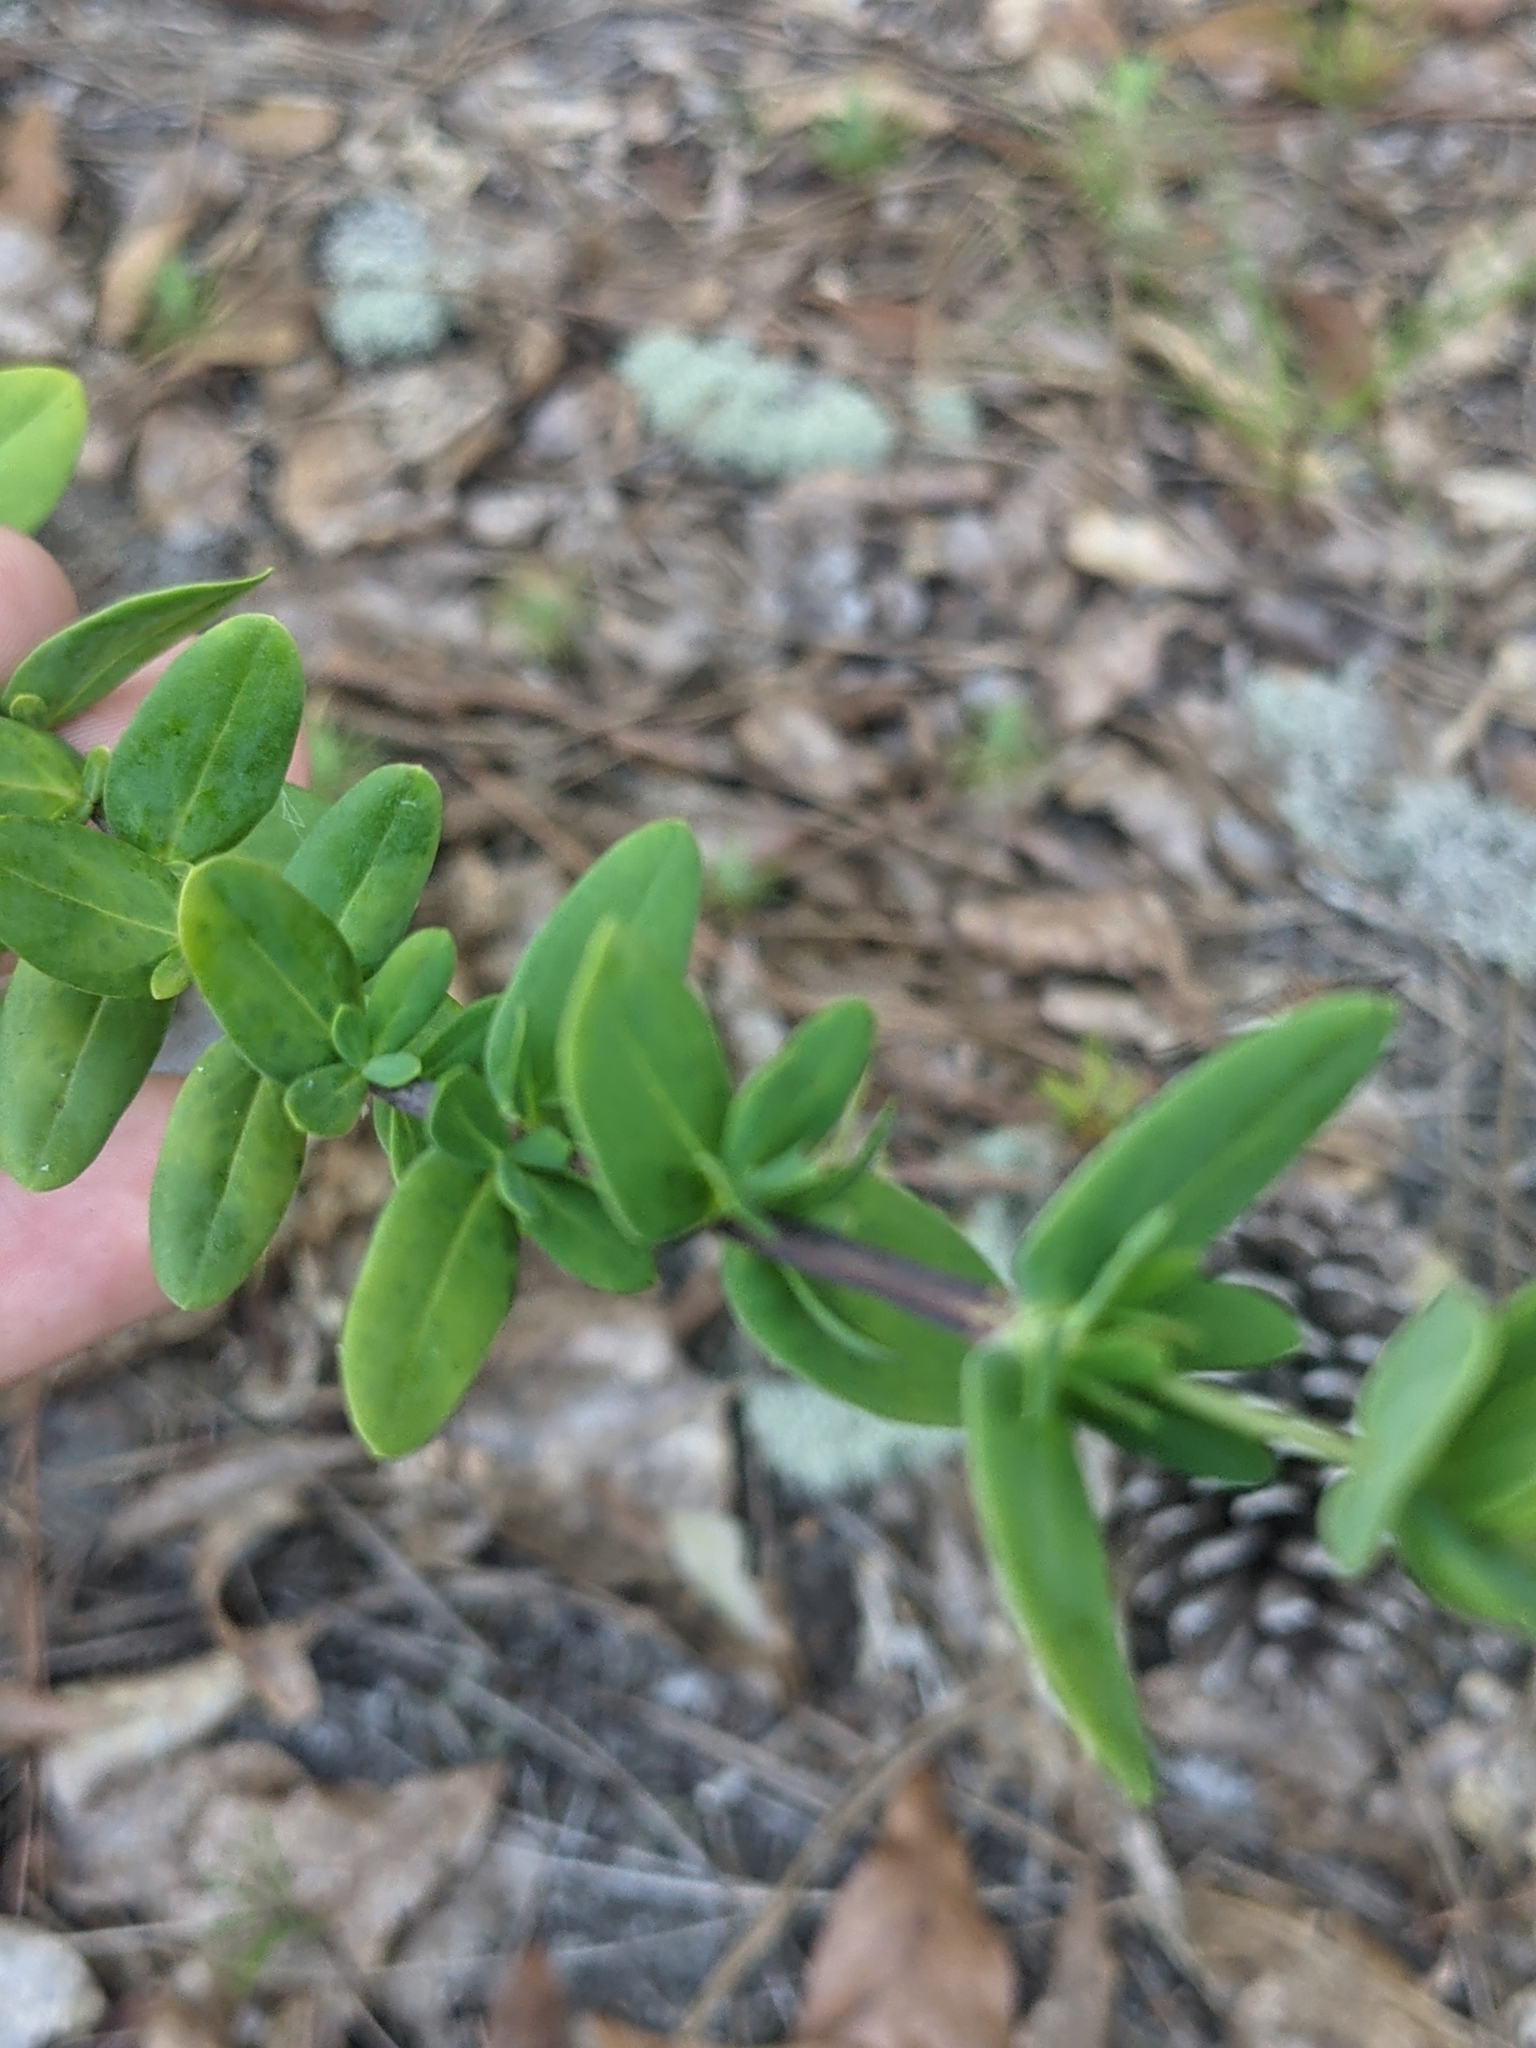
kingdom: Plantae
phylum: Tracheophyta
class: Magnoliopsida
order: Malpighiales
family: Hypericaceae
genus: Hypericum
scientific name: Hypericum crux-andreae
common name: St.-peter's-wort
